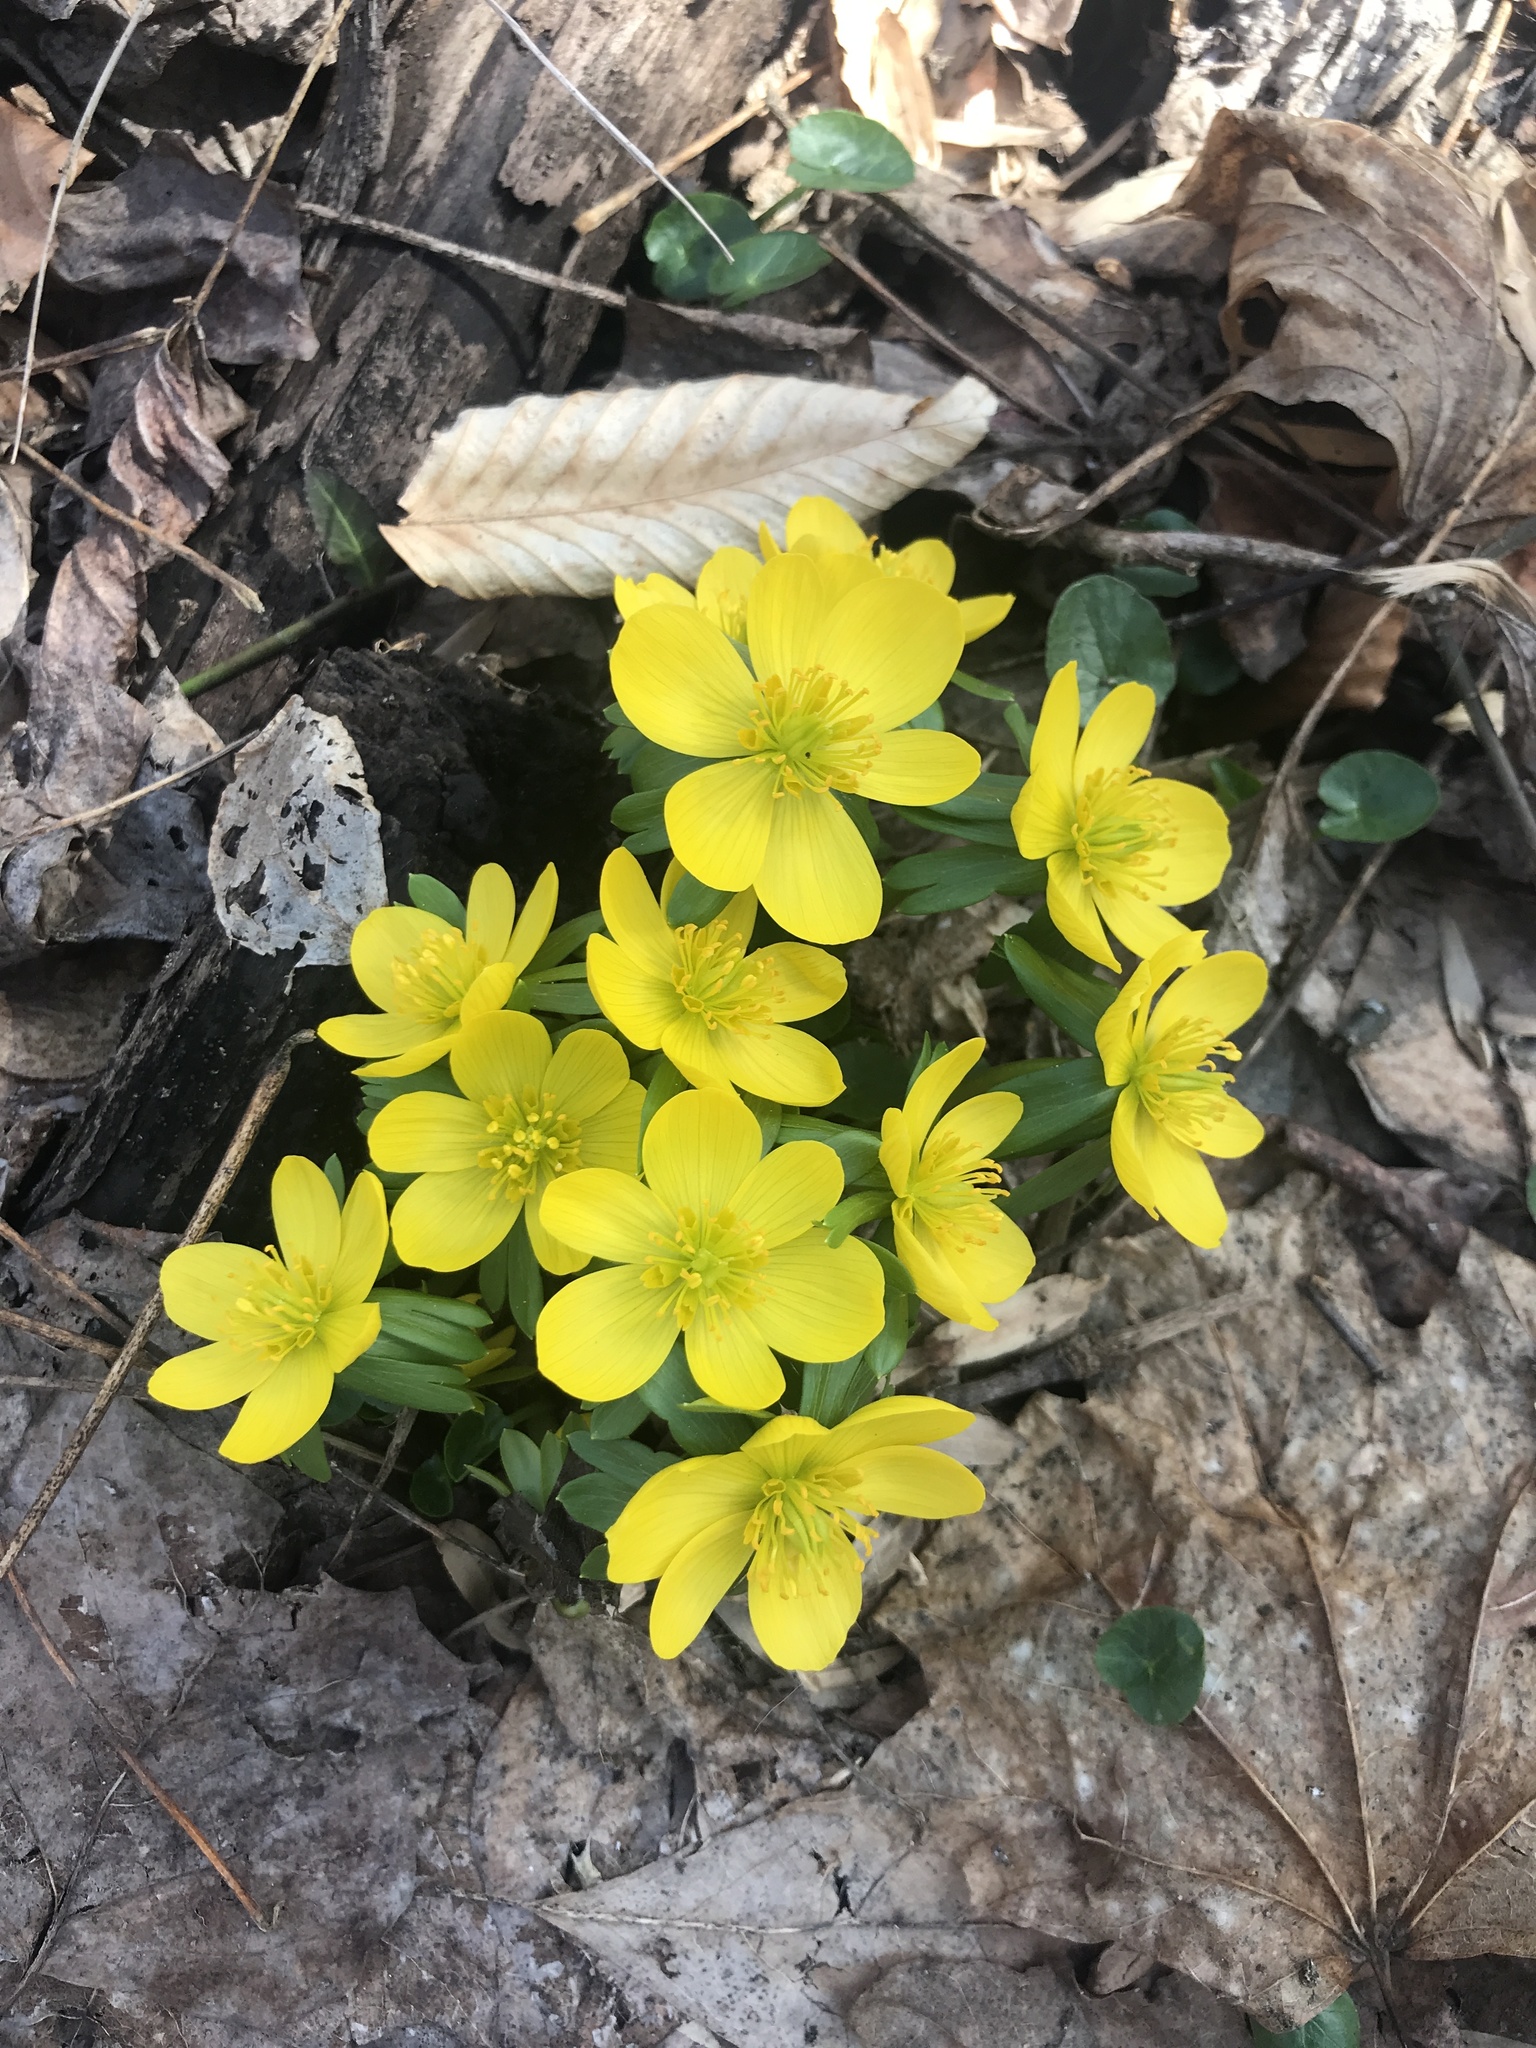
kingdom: Plantae
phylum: Tracheophyta
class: Magnoliopsida
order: Ranunculales
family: Ranunculaceae
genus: Eranthis
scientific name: Eranthis hyemalis
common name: Winter aconite
